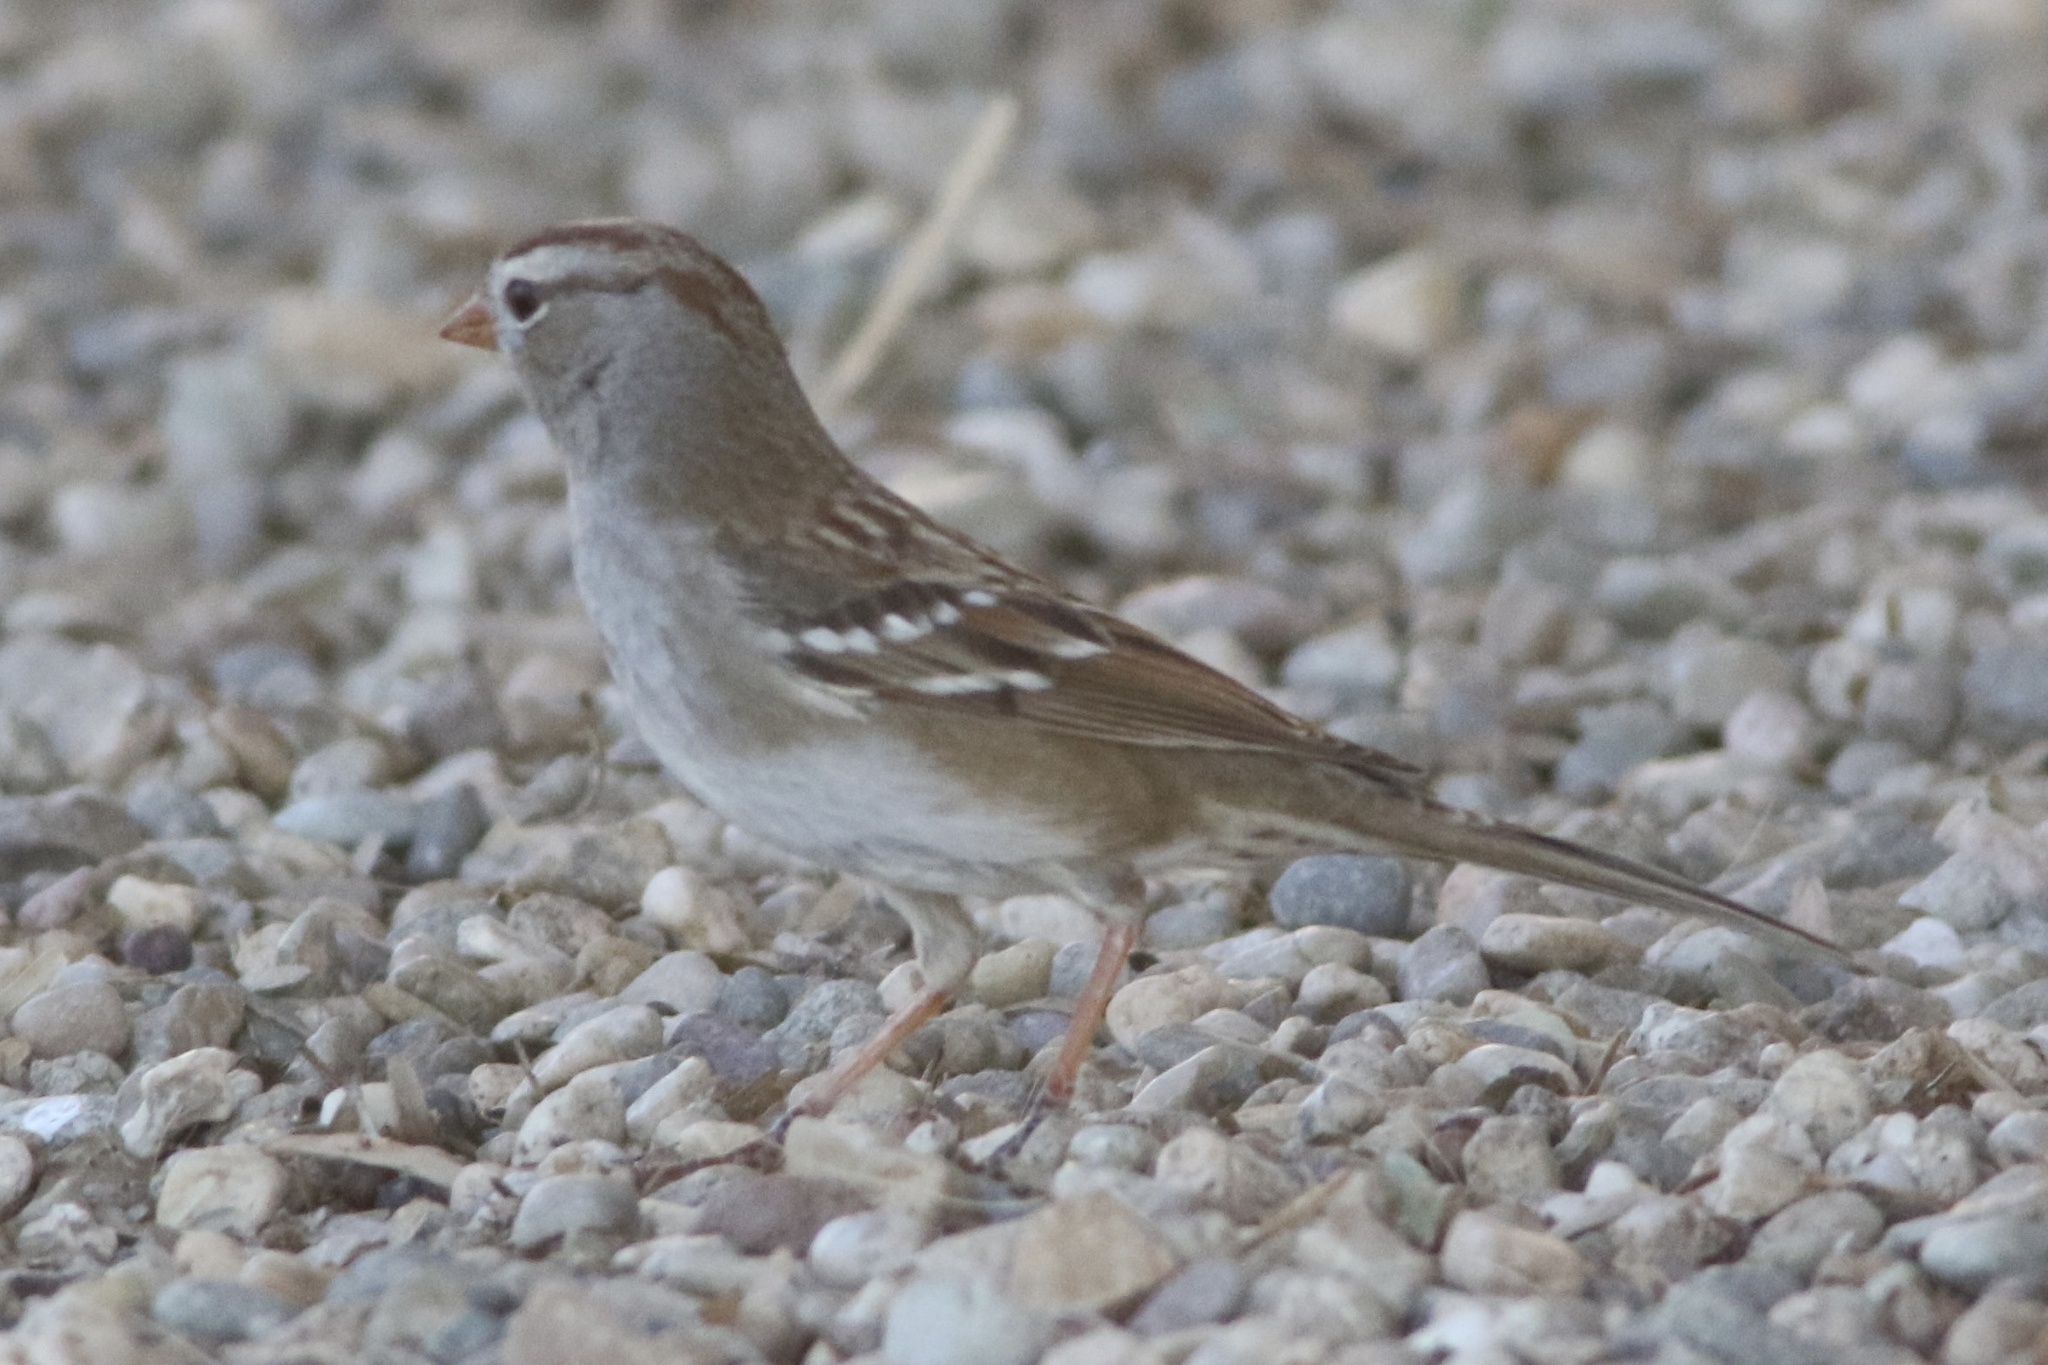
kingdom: Animalia
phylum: Chordata
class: Aves
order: Passeriformes
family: Passerellidae
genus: Zonotrichia
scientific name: Zonotrichia leucophrys
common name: White-crowned sparrow
